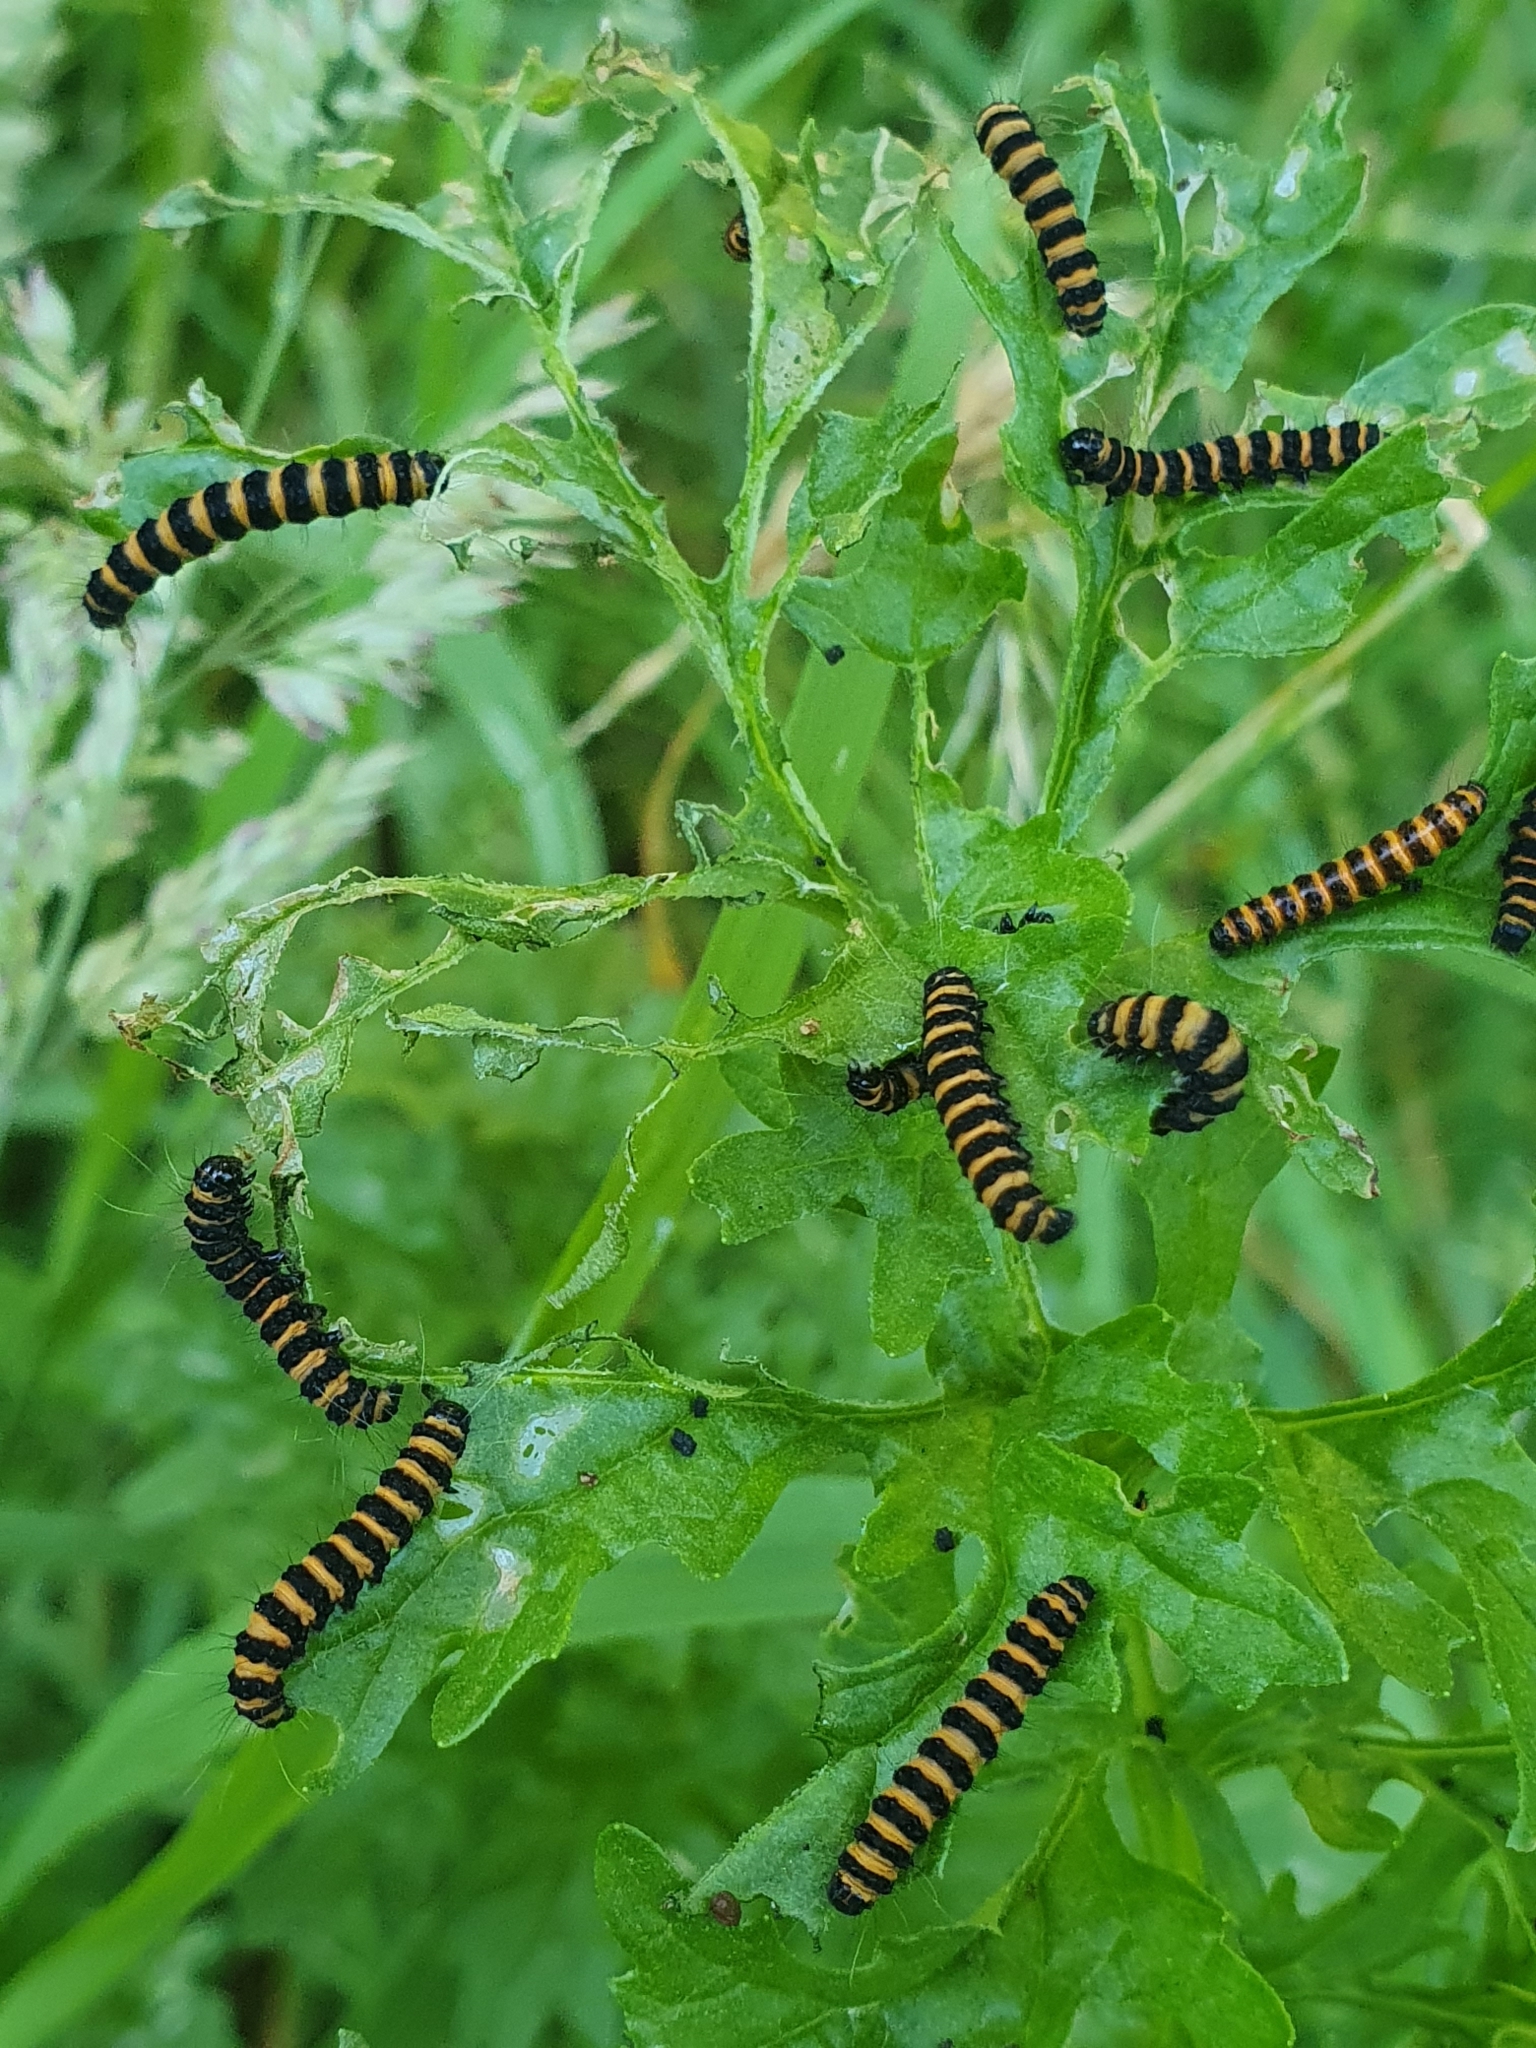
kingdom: Animalia
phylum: Arthropoda
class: Insecta
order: Lepidoptera
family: Erebidae
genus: Tyria
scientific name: Tyria jacobaeae
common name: Cinnabar
